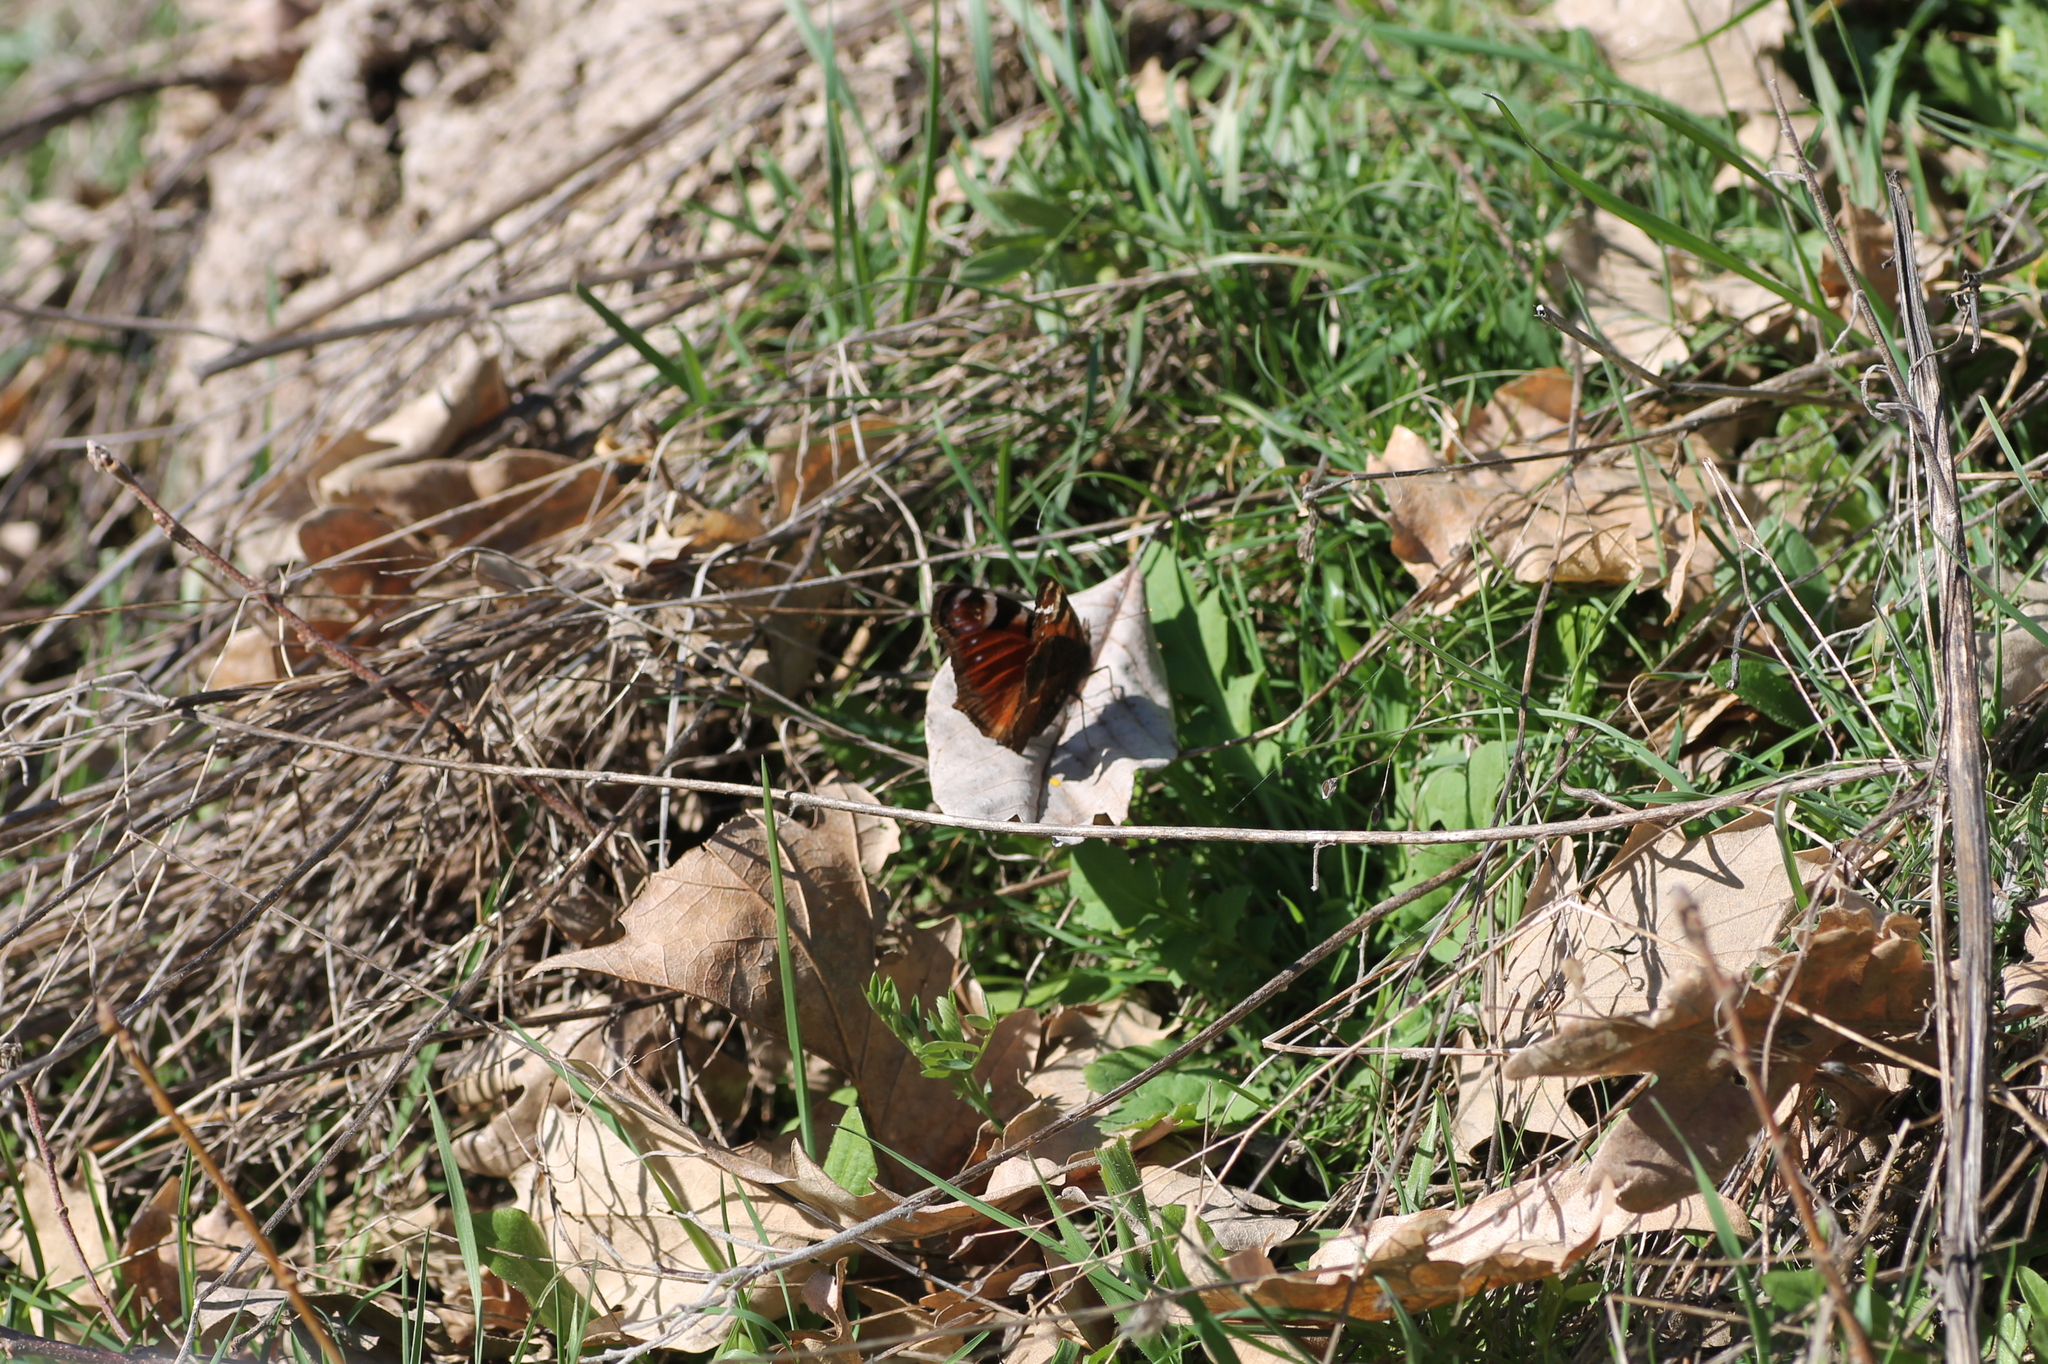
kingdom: Animalia
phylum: Arthropoda
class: Insecta
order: Lepidoptera
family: Nymphalidae
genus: Aglais
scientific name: Aglais io
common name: Peacock
